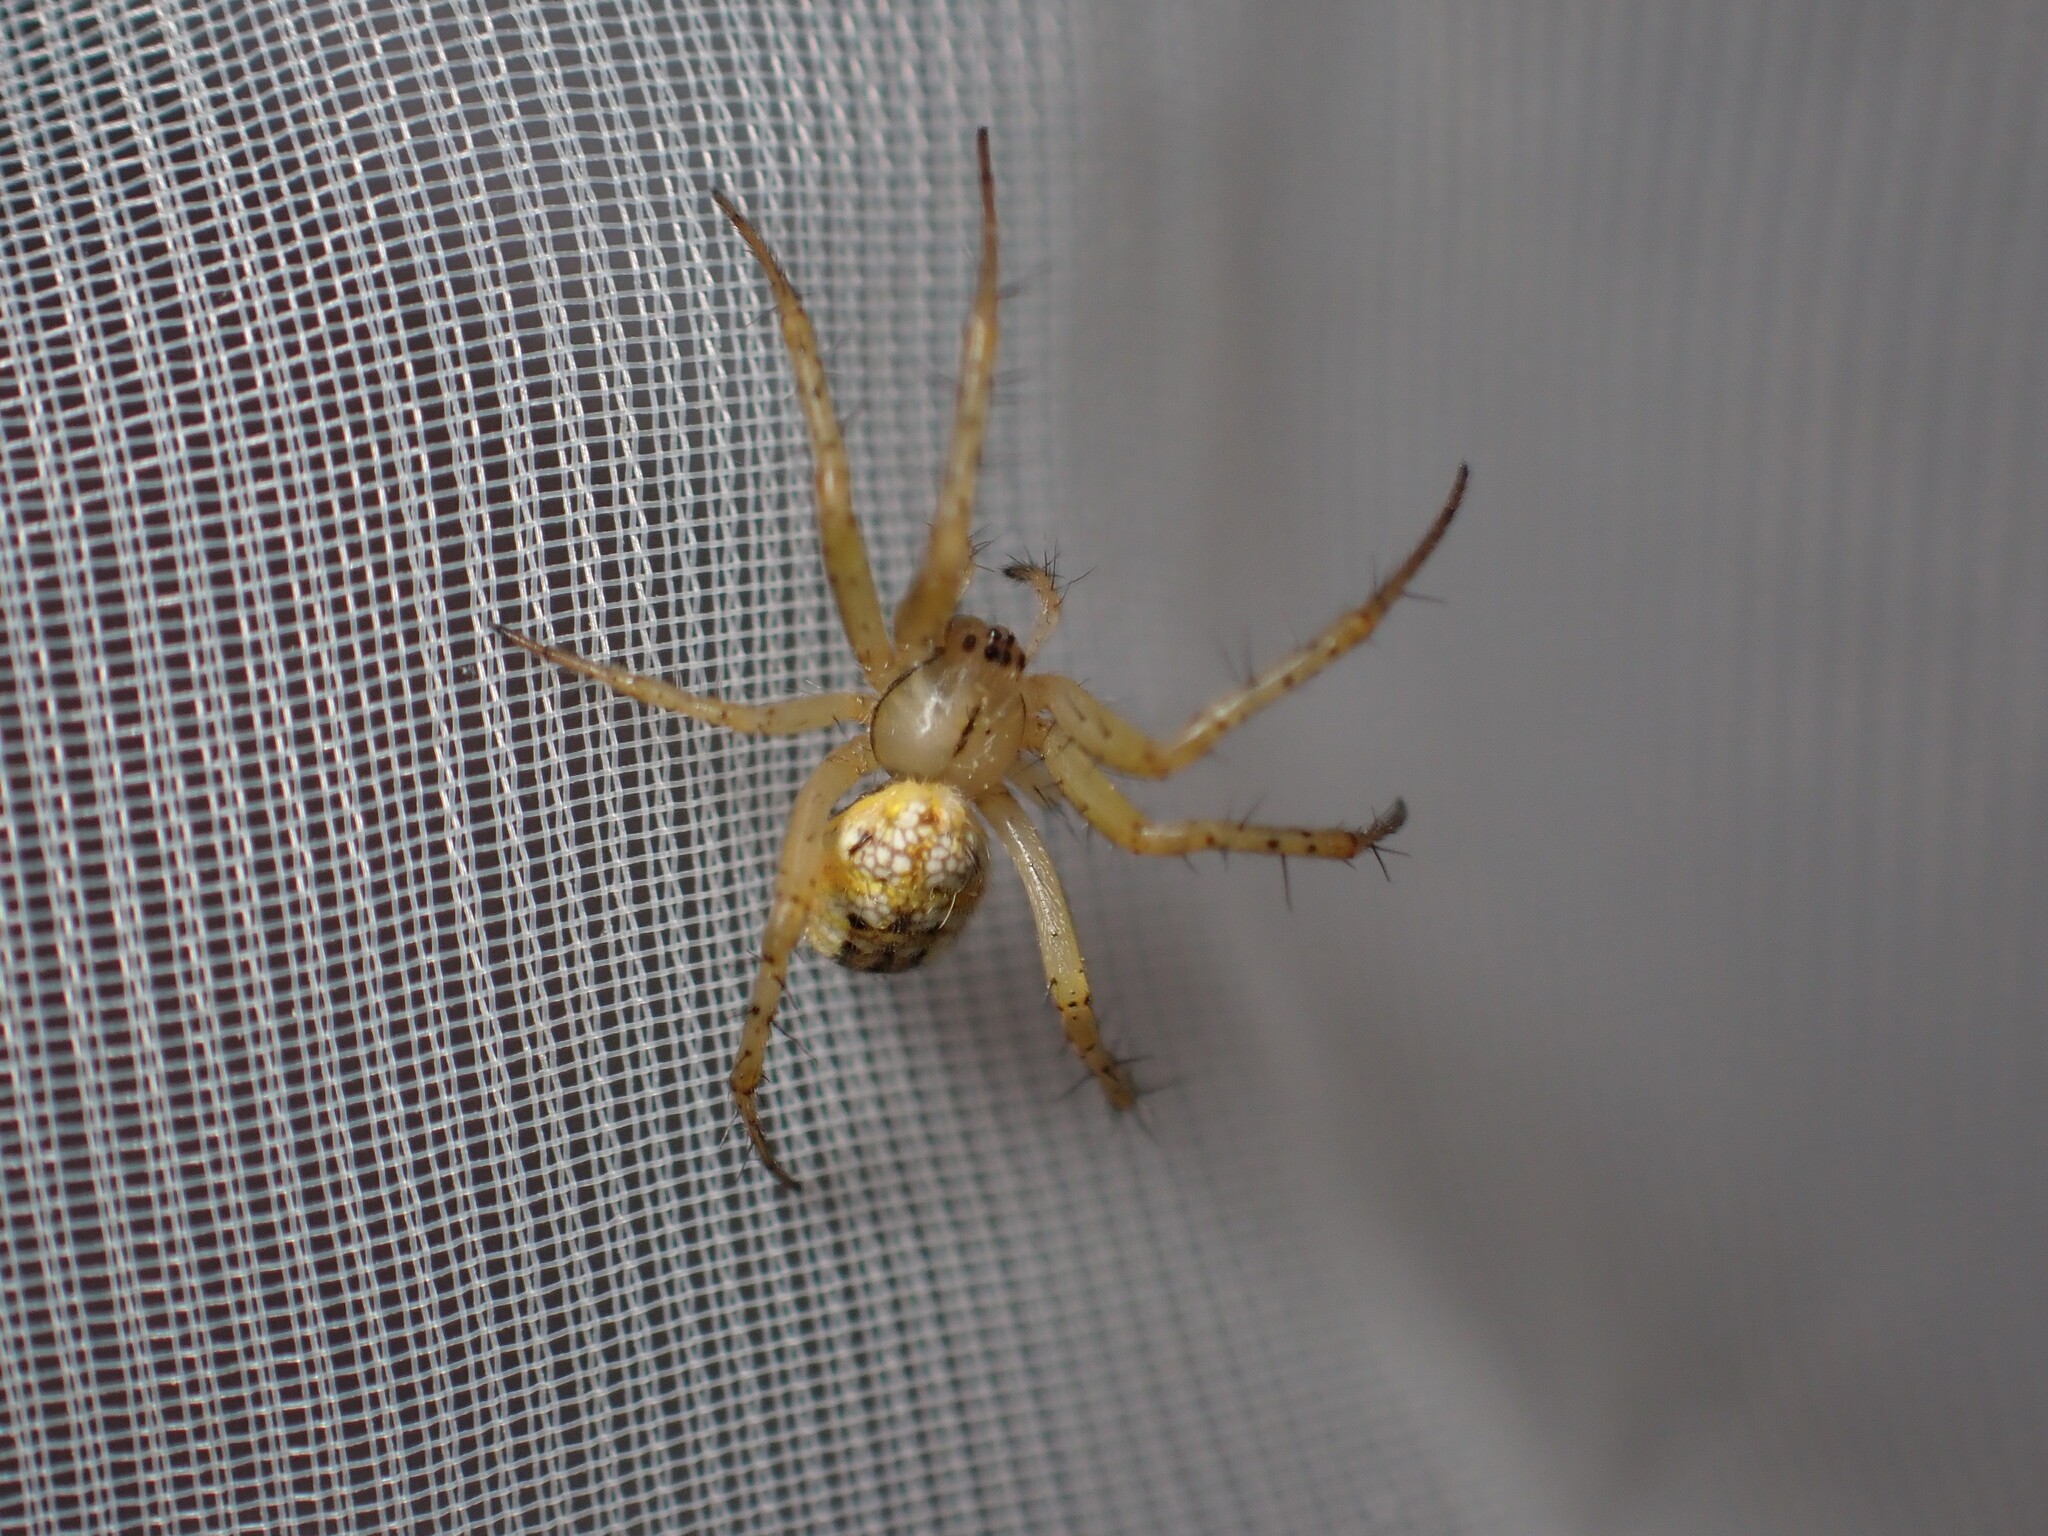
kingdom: Animalia
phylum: Arthropoda
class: Arachnida
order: Araneae
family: Araneidae
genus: Mangora
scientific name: Mangora acalypha
